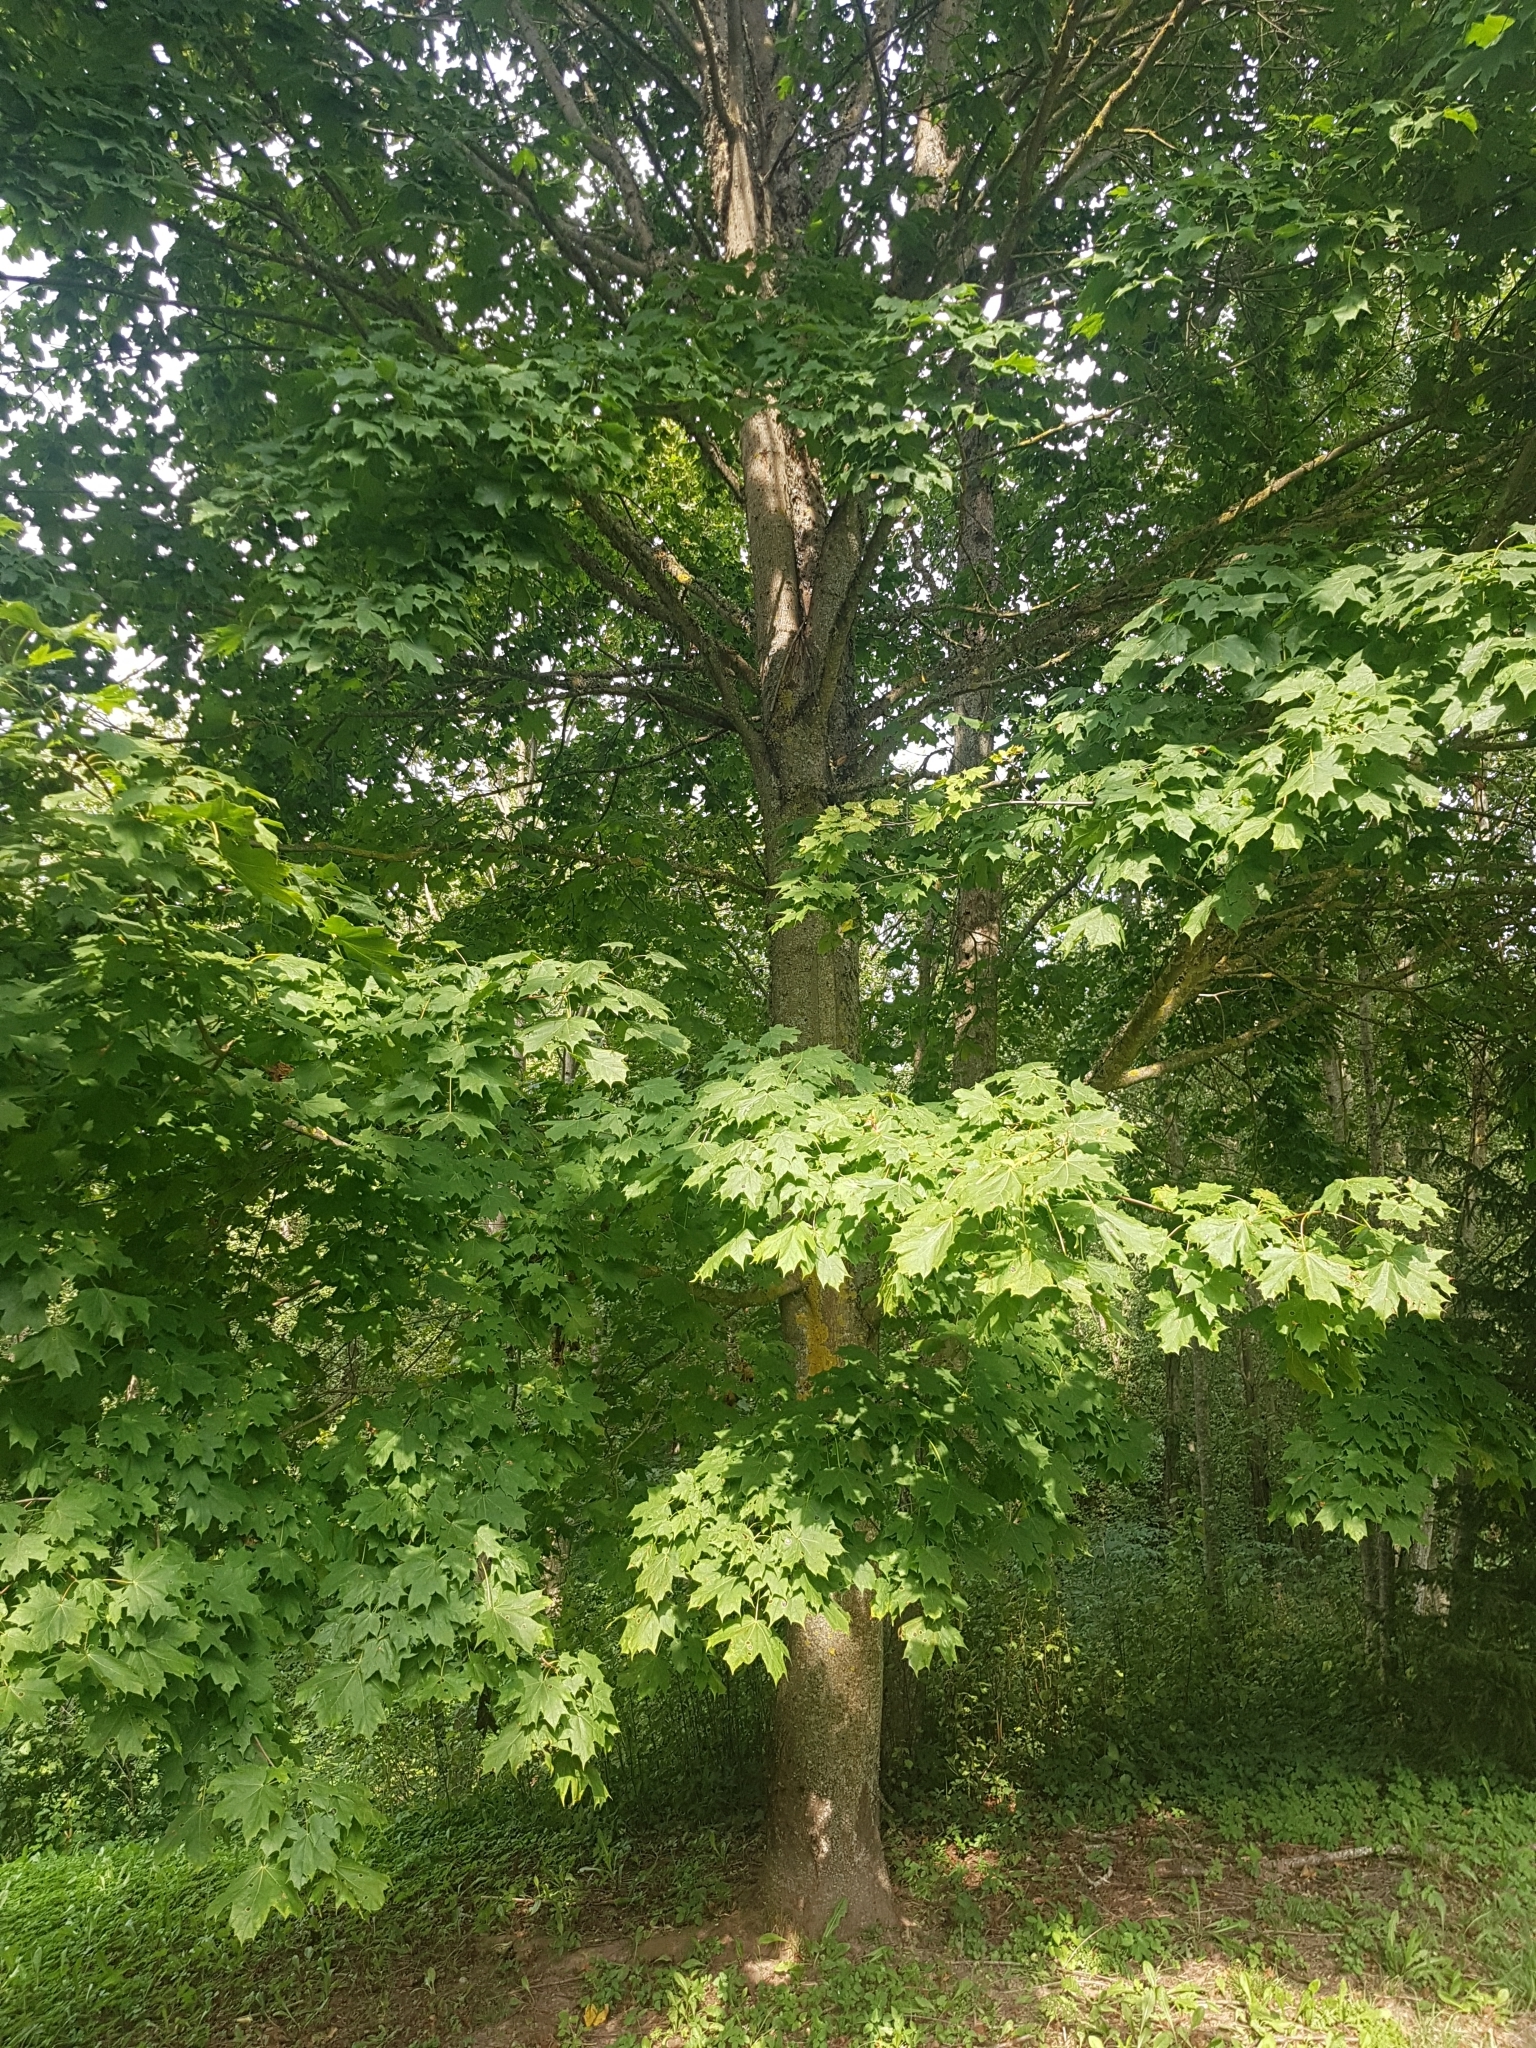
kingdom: Plantae
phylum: Tracheophyta
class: Magnoliopsida
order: Sapindales
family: Sapindaceae
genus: Acer
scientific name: Acer platanoides
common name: Norway maple
